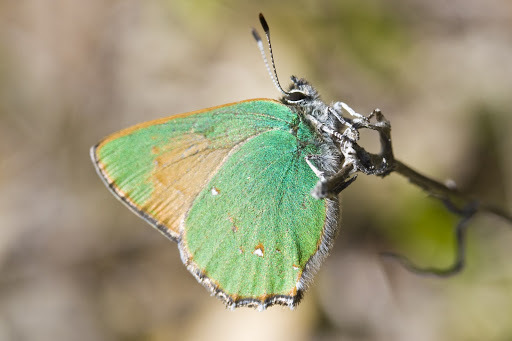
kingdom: Animalia
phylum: Arthropoda
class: Insecta
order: Lepidoptera
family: Lycaenidae
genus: Callophrys
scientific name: Callophrys dumetorum
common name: Bramble hairstreak
